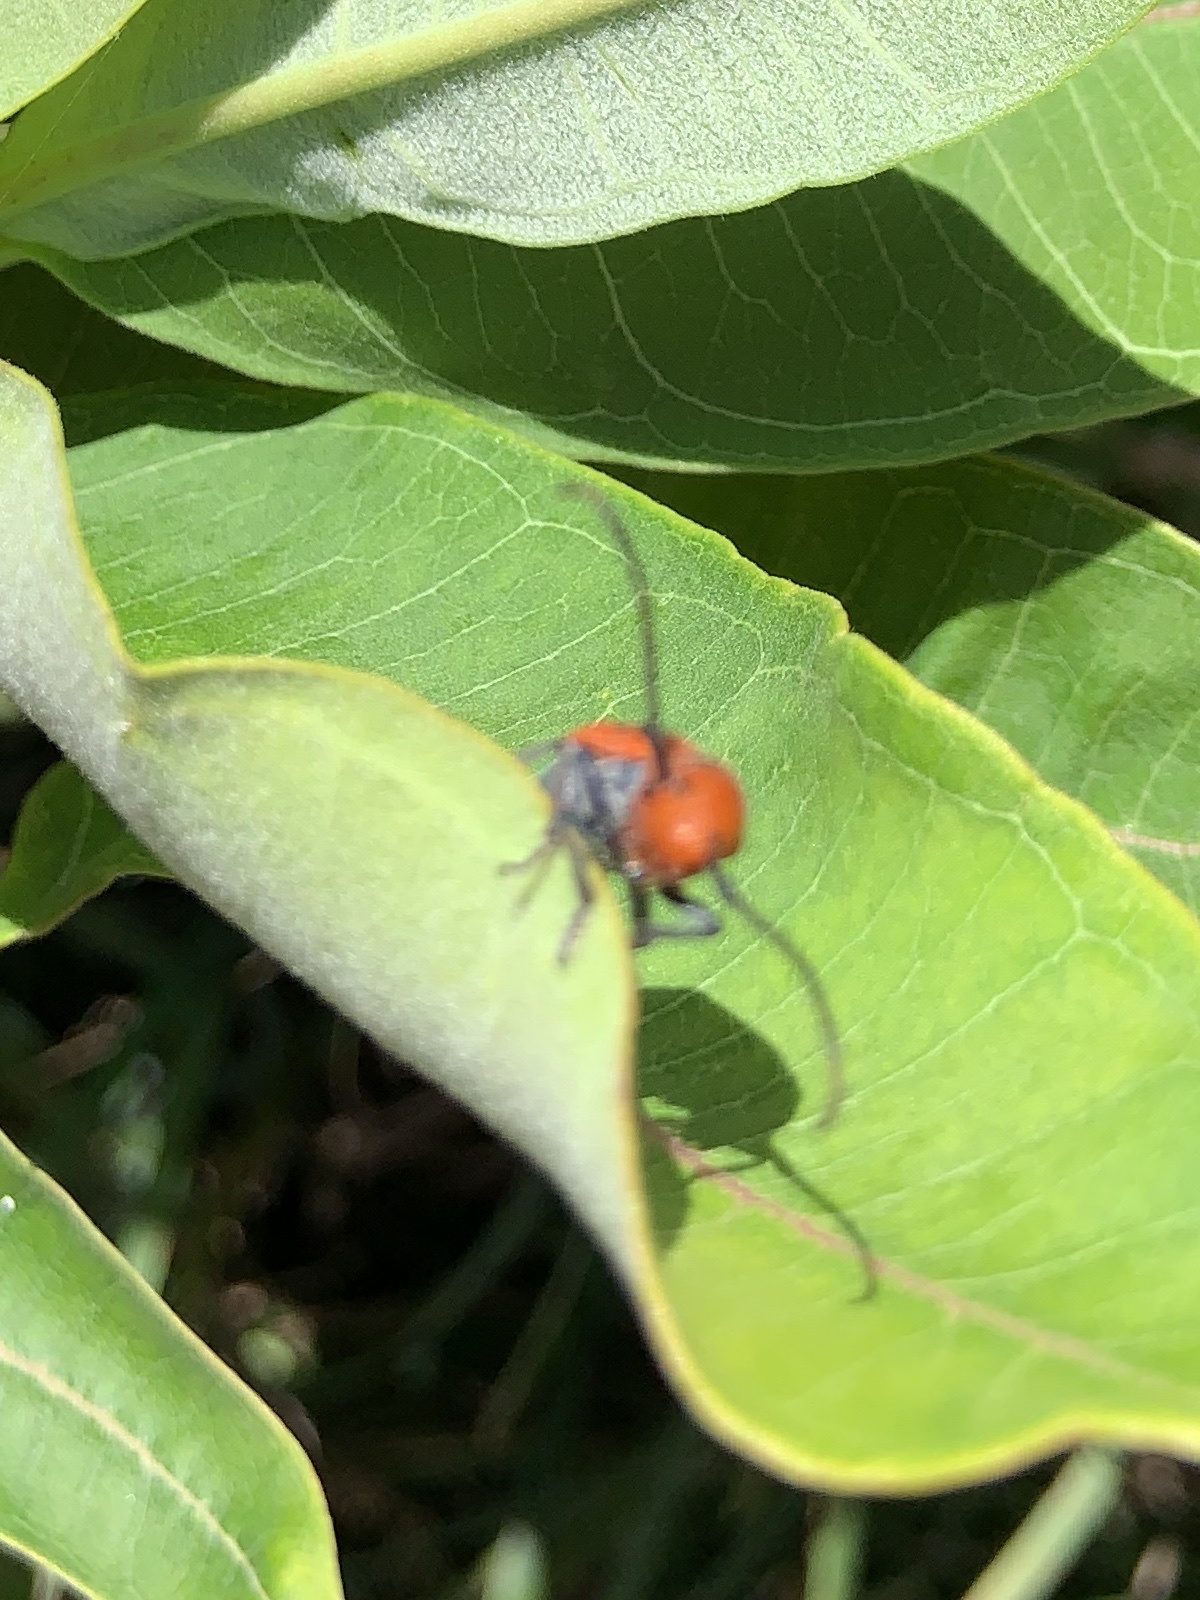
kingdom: Animalia
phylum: Arthropoda
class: Insecta
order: Coleoptera
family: Cerambycidae
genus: Tetraopes
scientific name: Tetraopes tetrophthalmus
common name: Red milkweed beetle
